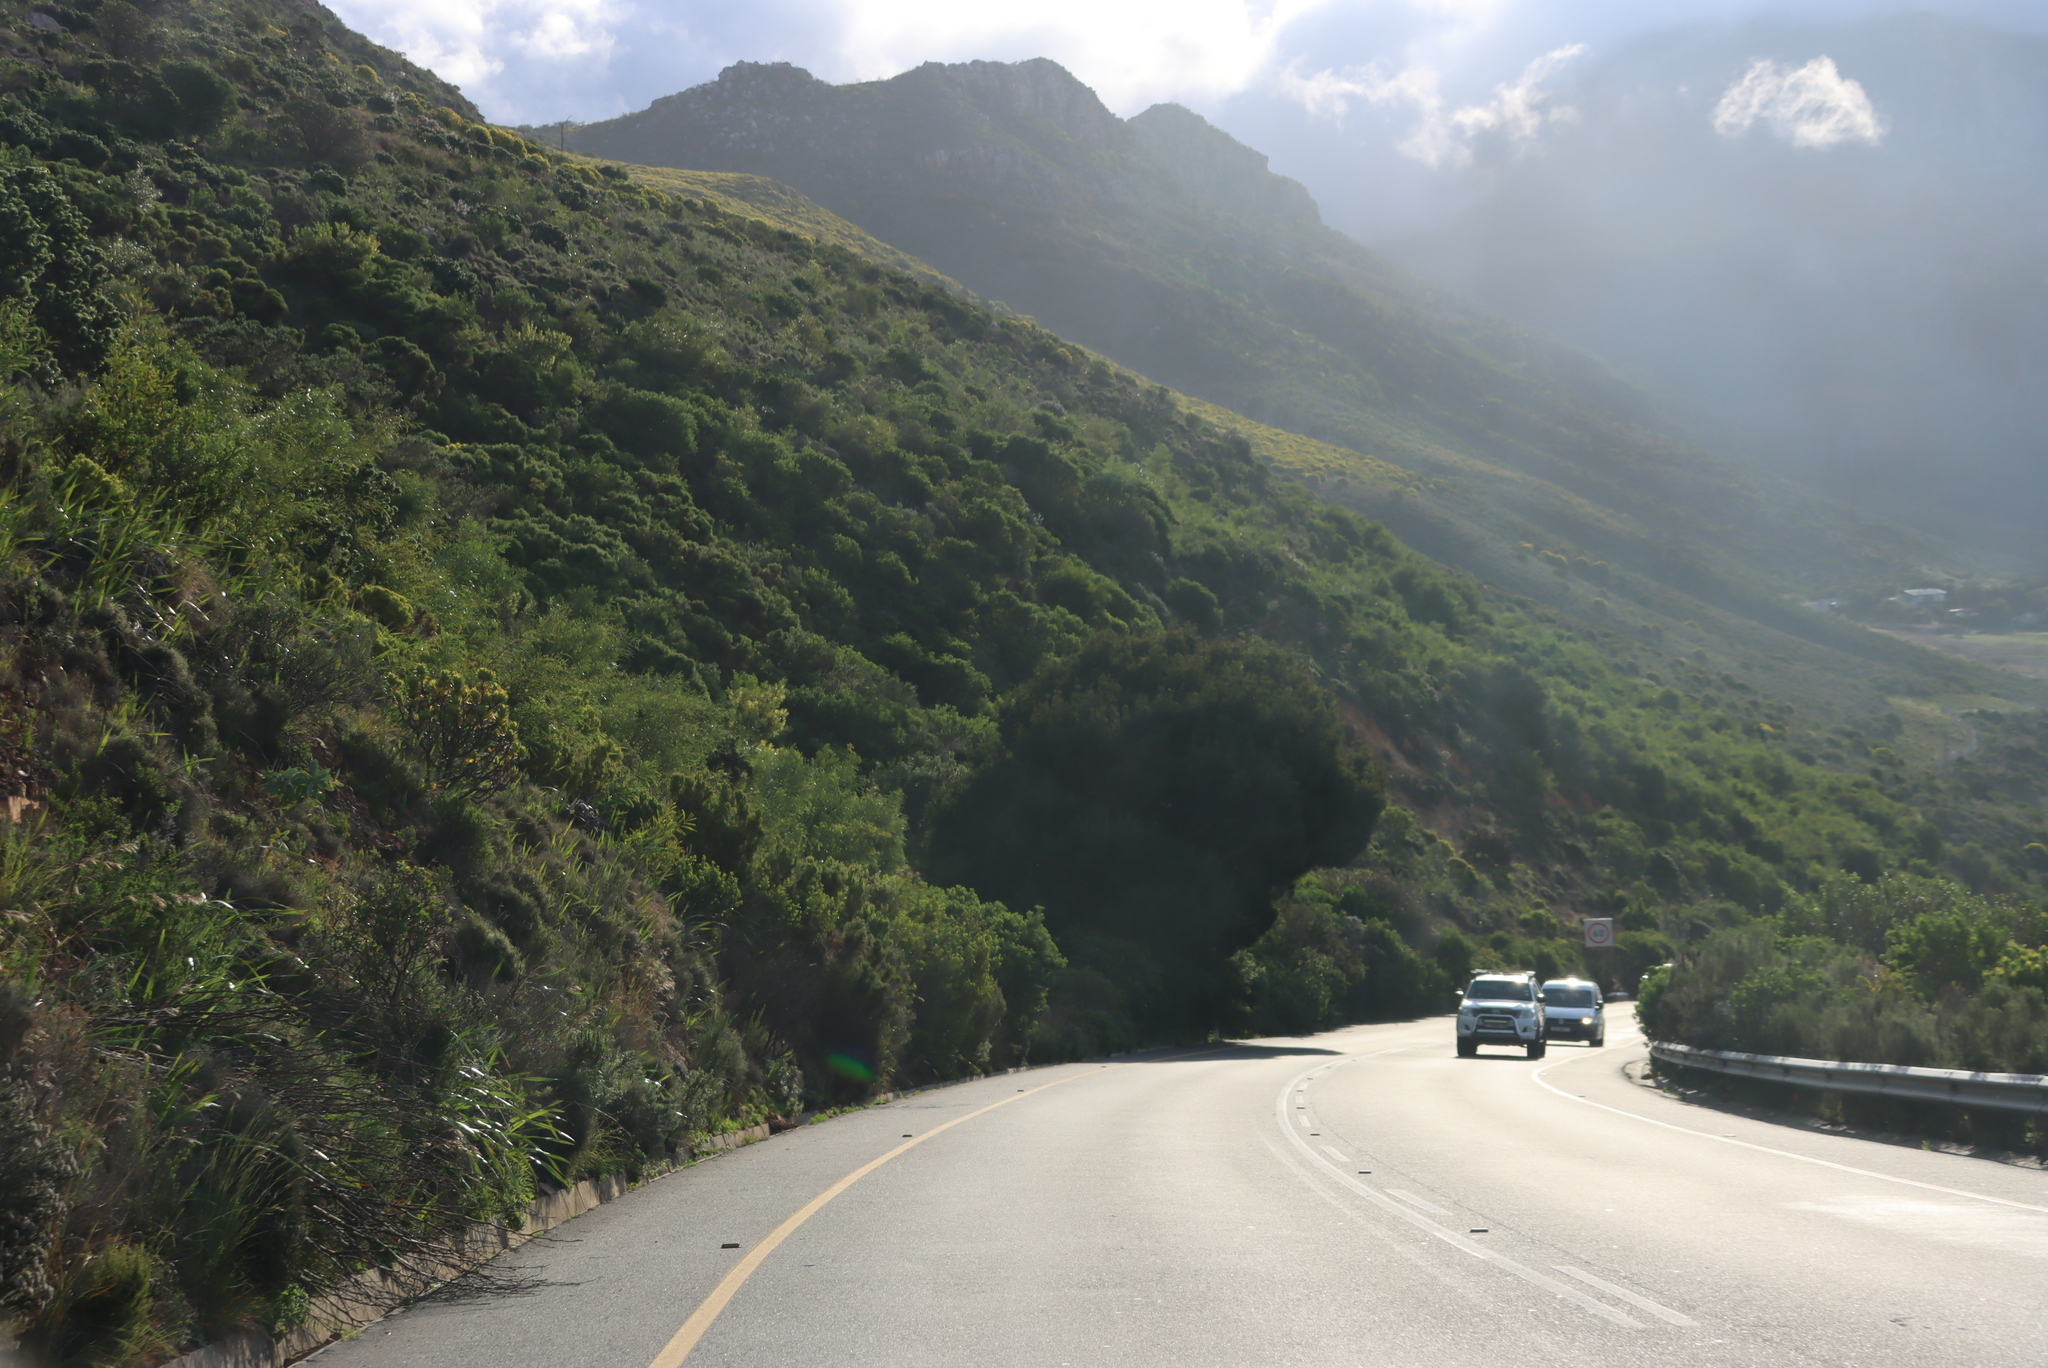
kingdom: Plantae
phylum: Tracheophyta
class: Pinopsida
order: Pinales
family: Podocarpaceae
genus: Afrocarpus
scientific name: Afrocarpus falcatus
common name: Bastard yellowwood
